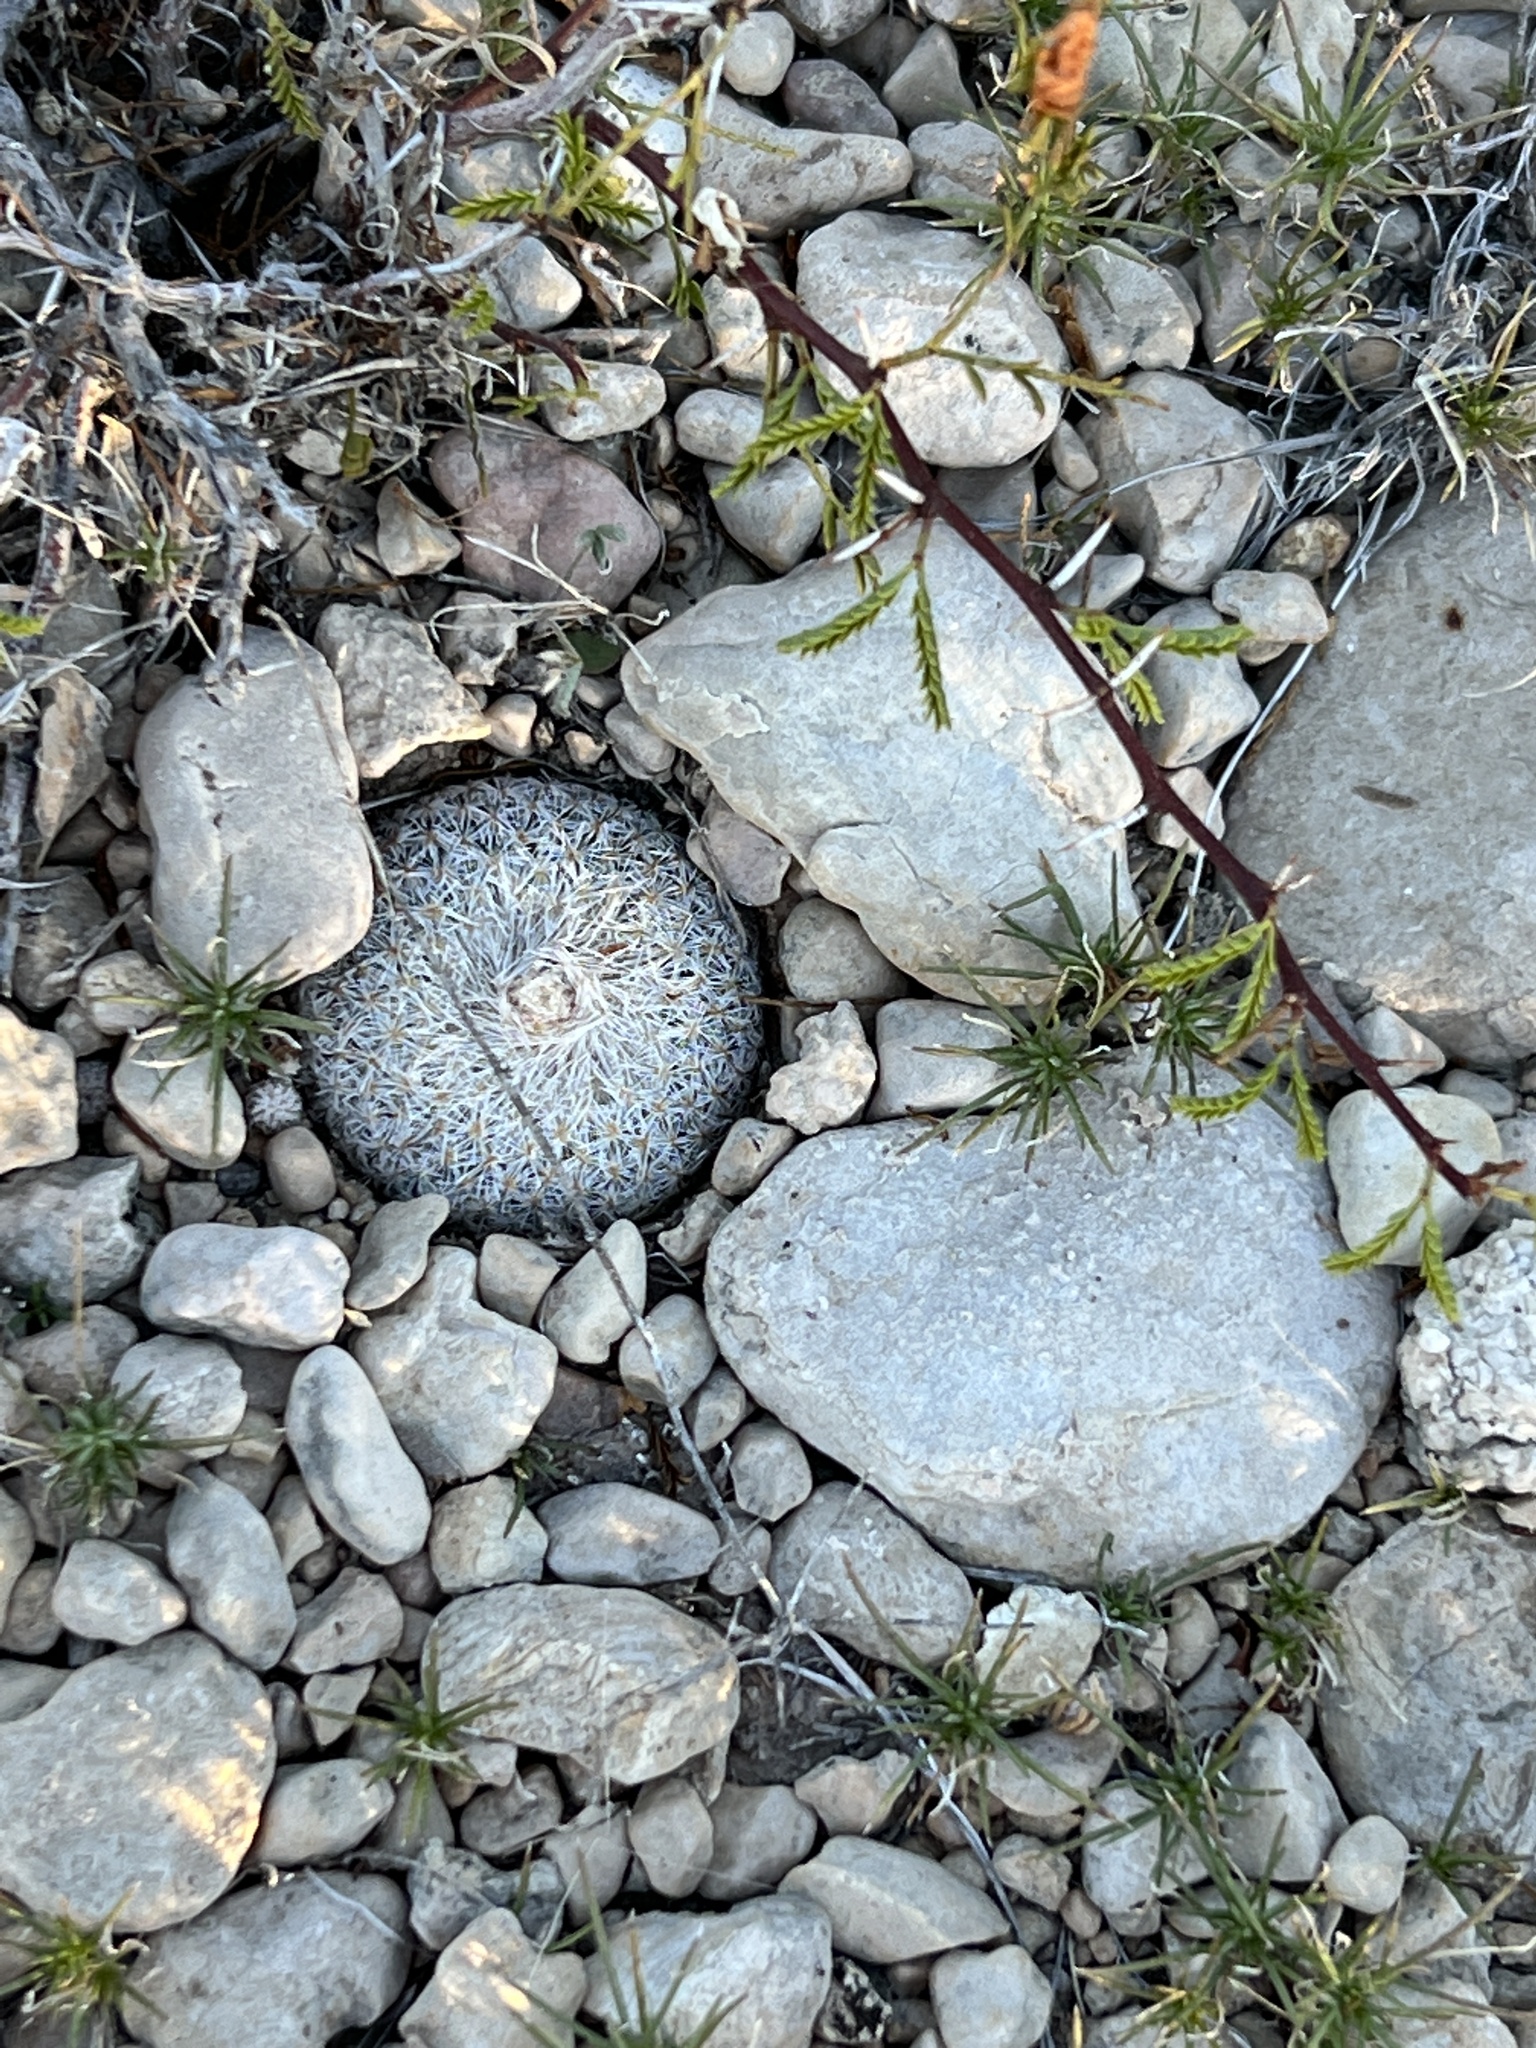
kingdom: Plantae
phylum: Tracheophyta
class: Magnoliopsida
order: Caryophyllales
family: Cactaceae
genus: Epithelantha
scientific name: Epithelantha micromeris
